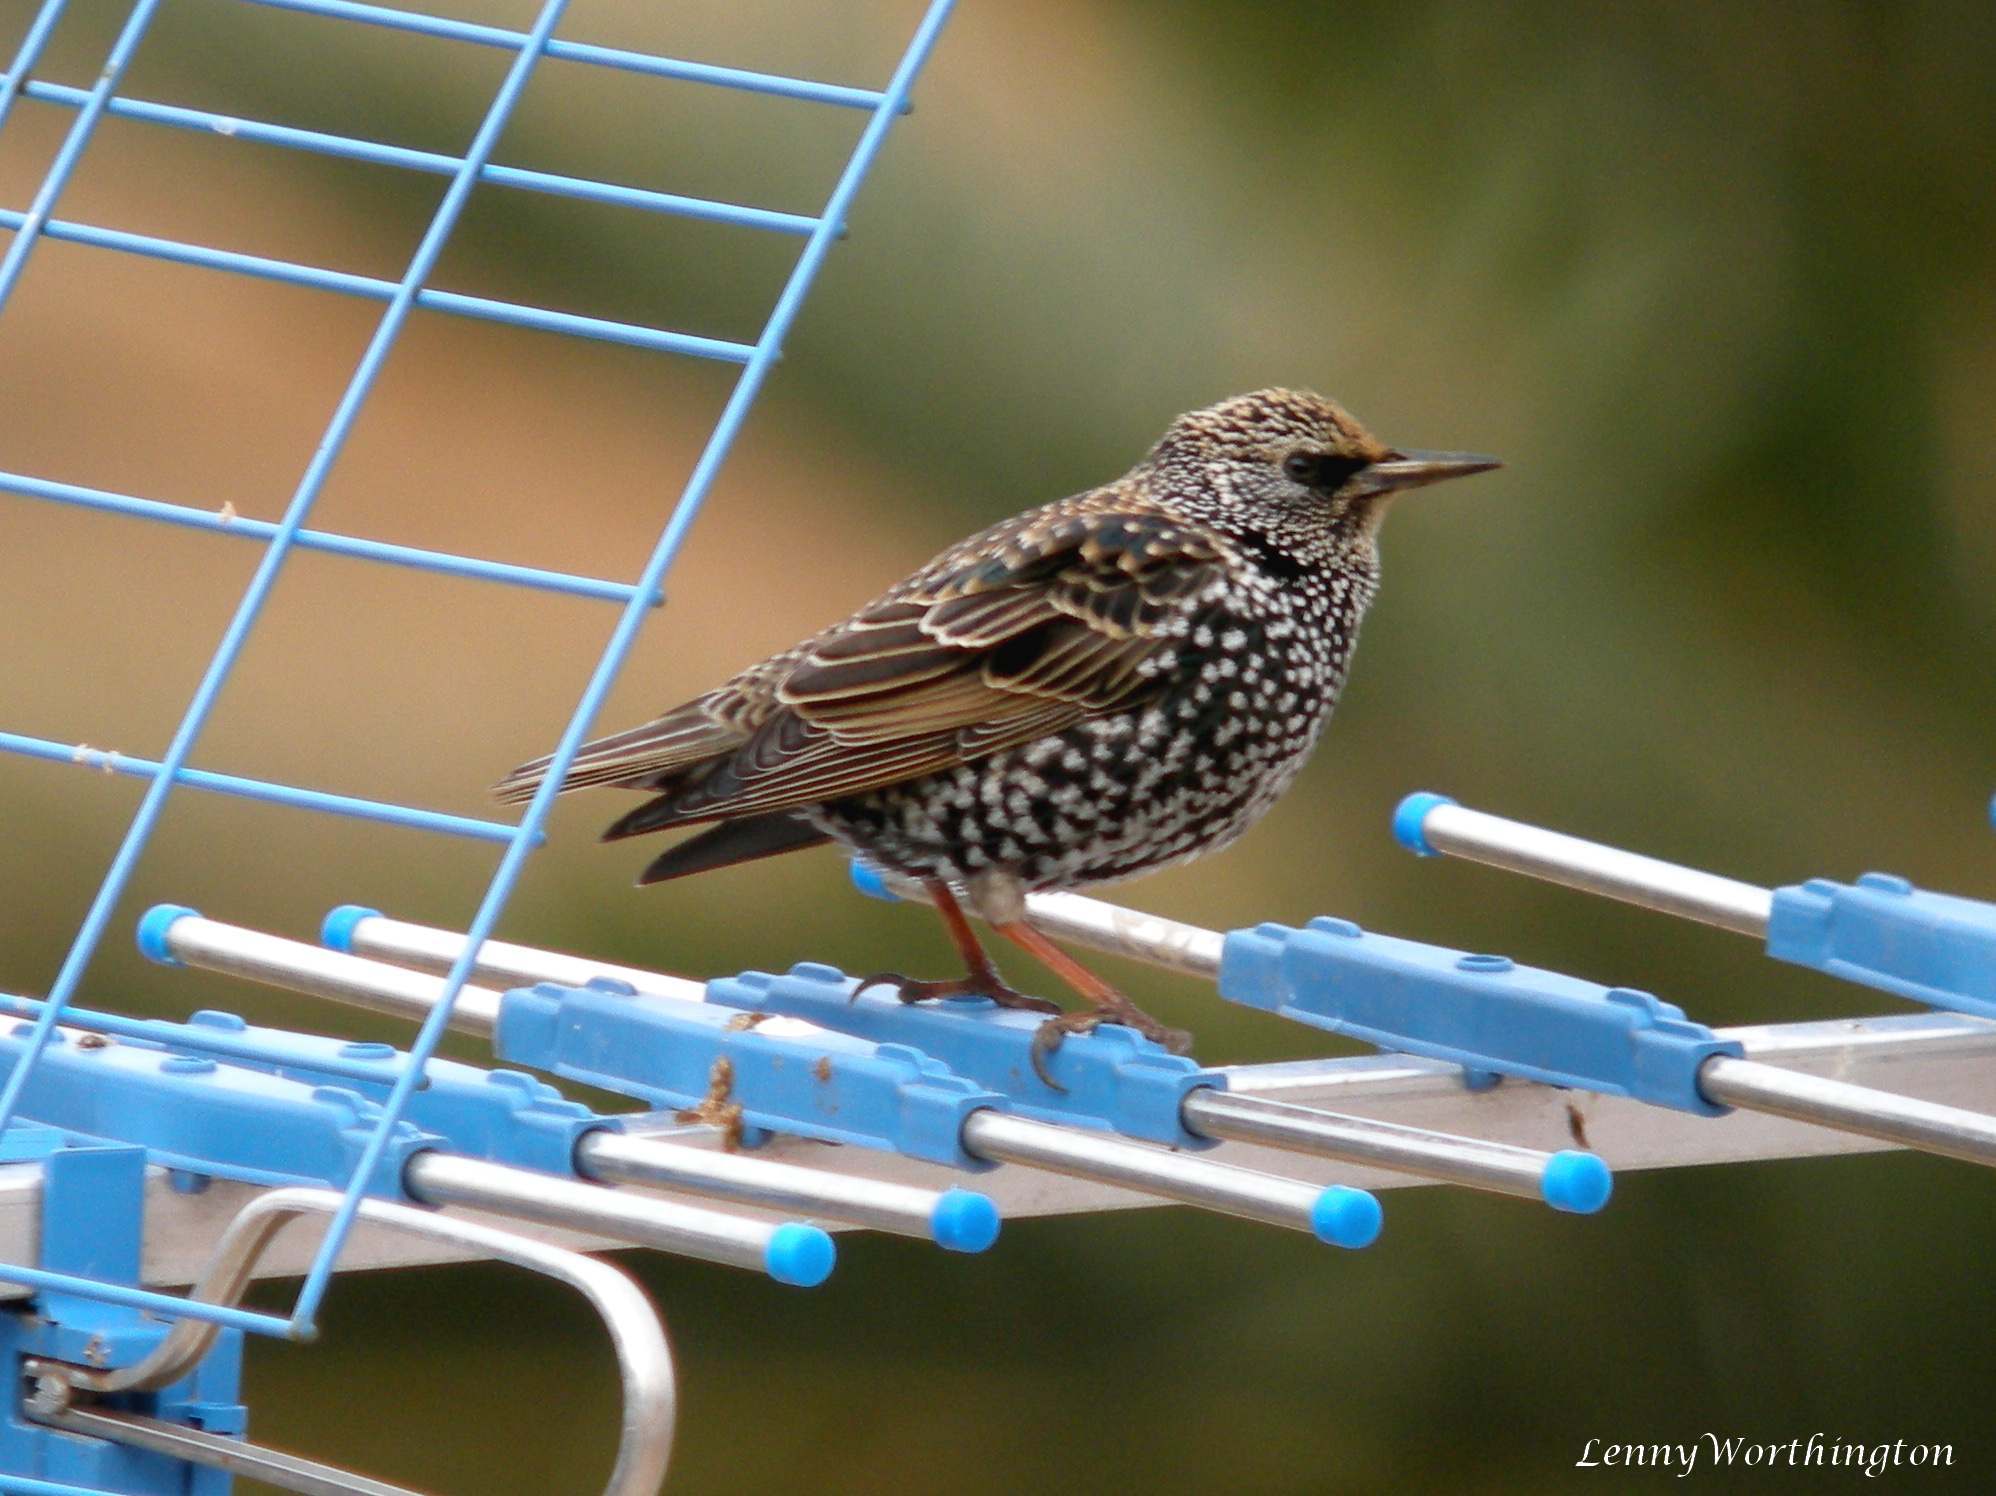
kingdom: Animalia
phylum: Chordata
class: Aves
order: Passeriformes
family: Sturnidae
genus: Sturnus
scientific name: Sturnus vulgaris
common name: Common starling
